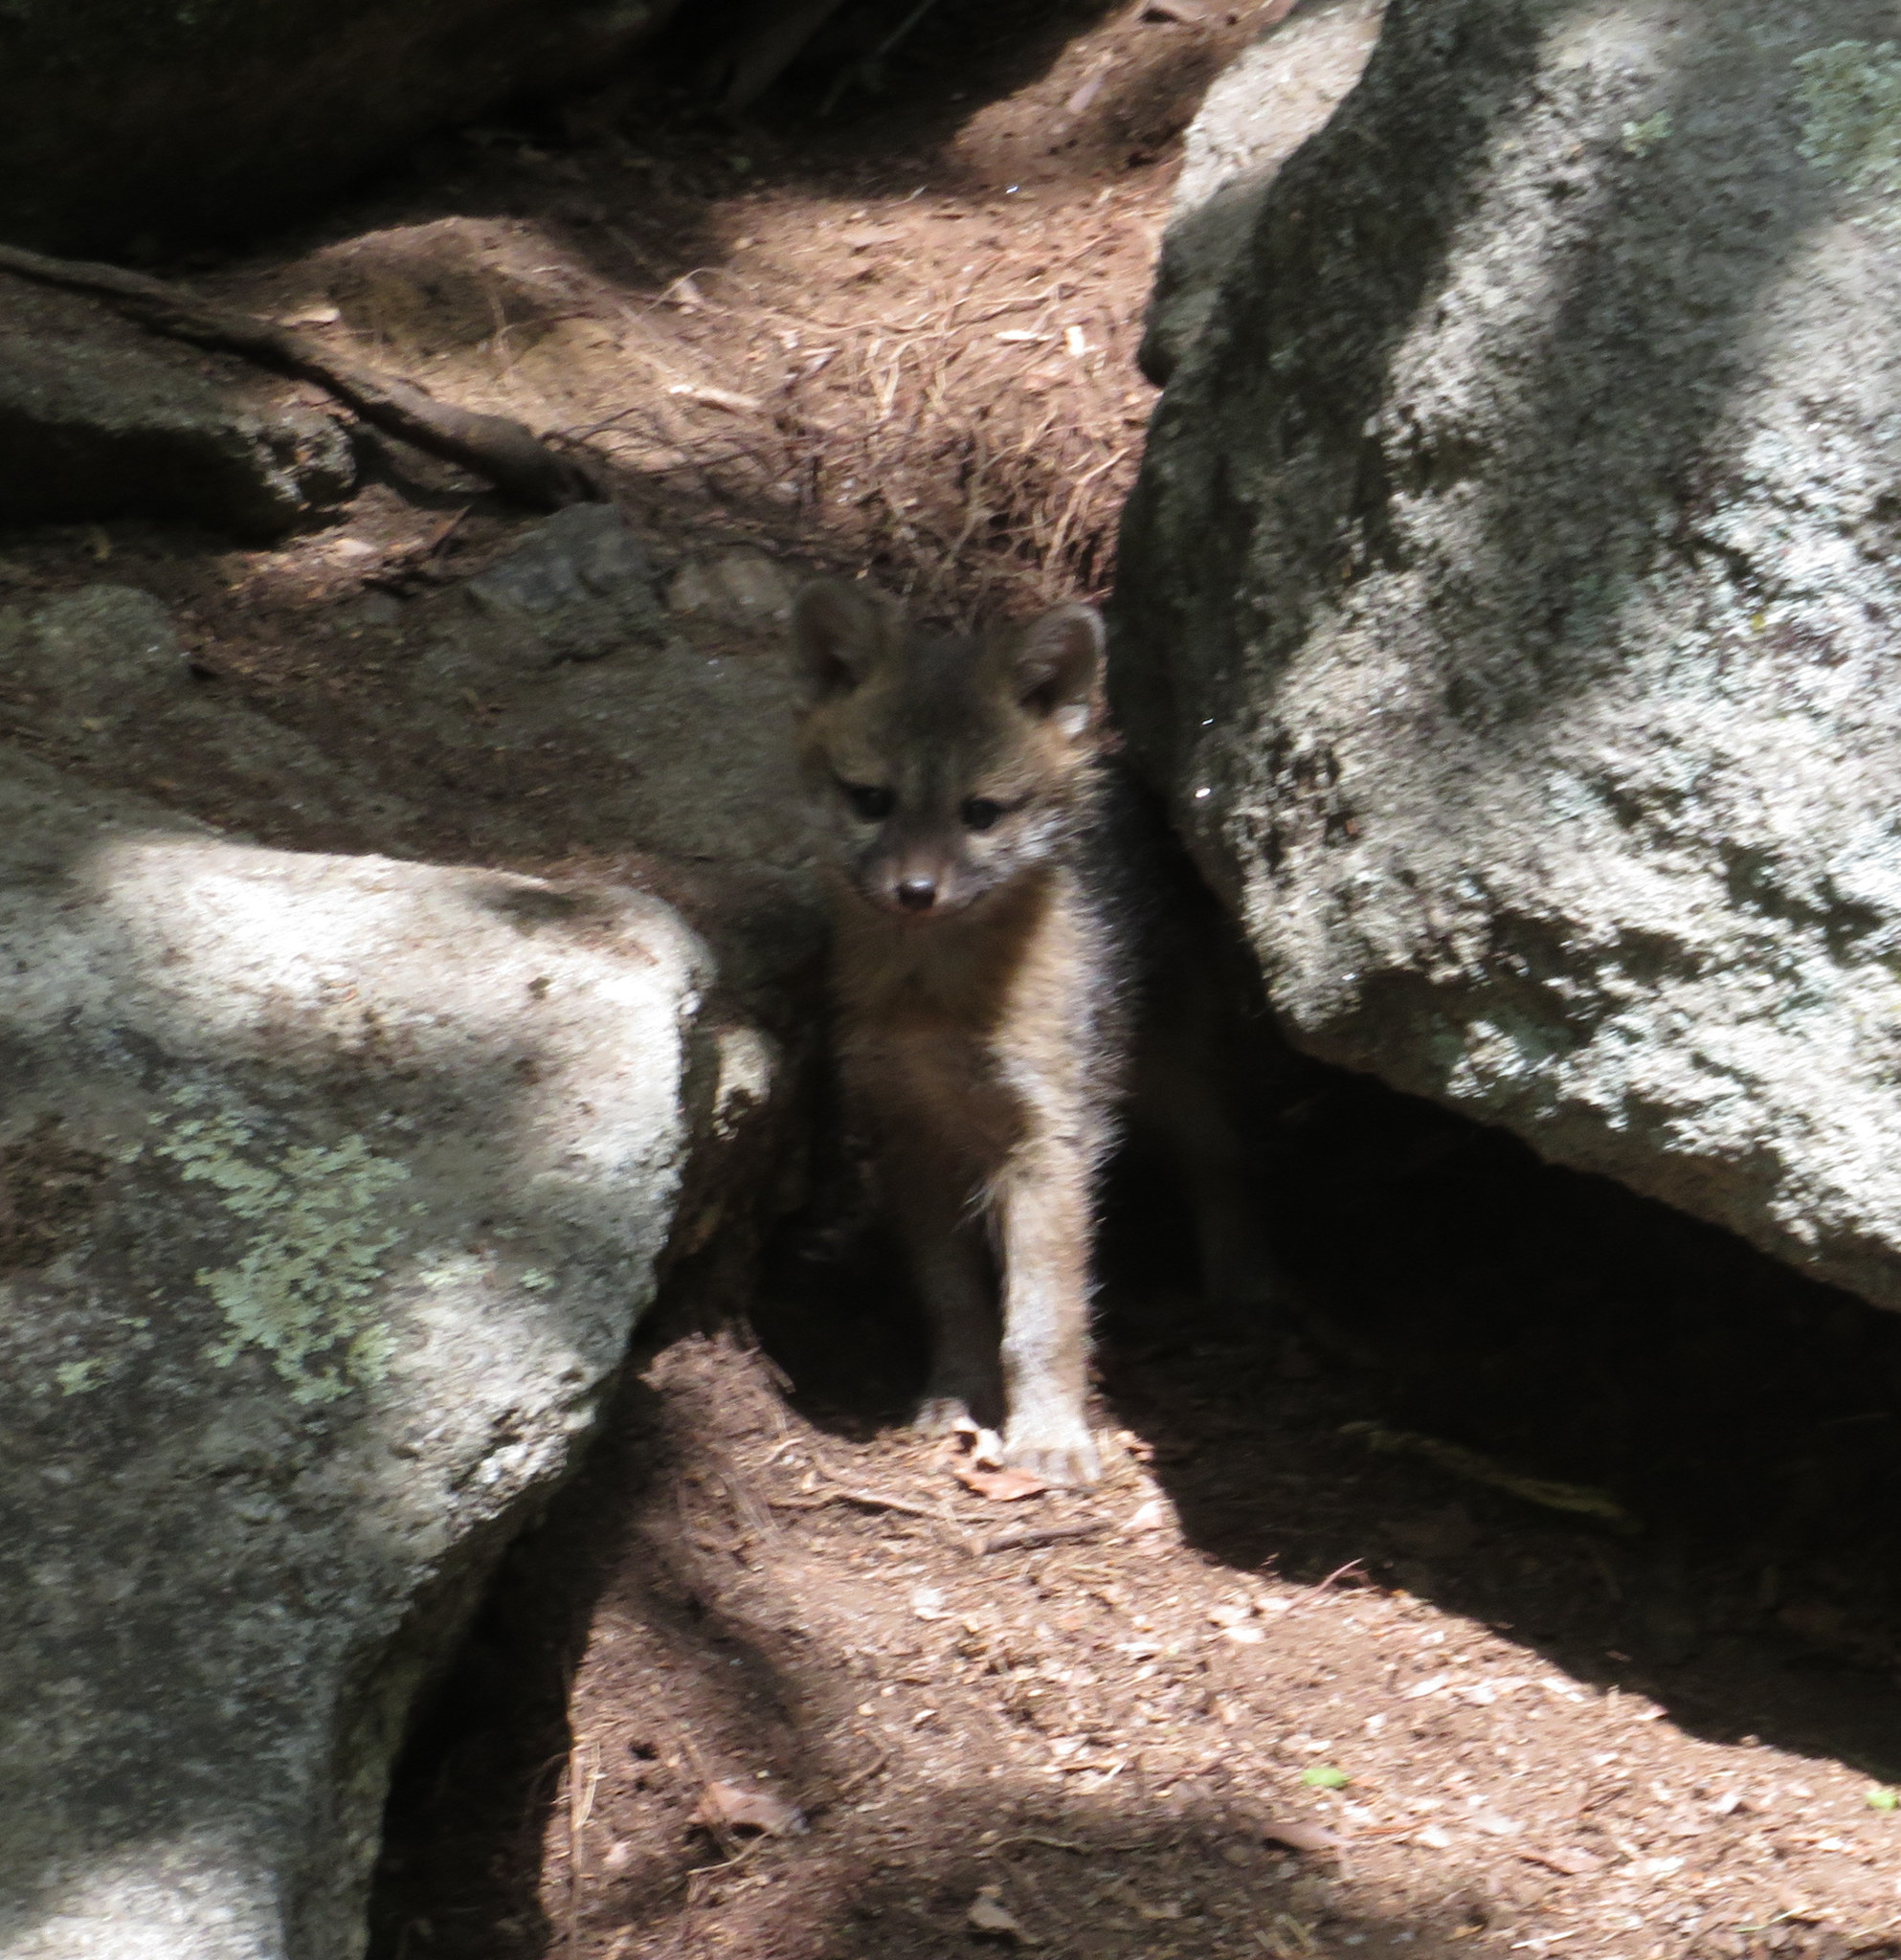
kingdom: Animalia
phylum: Chordata
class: Mammalia
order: Carnivora
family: Canidae
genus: Urocyon
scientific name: Urocyon cinereoargenteus
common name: Gray fox
